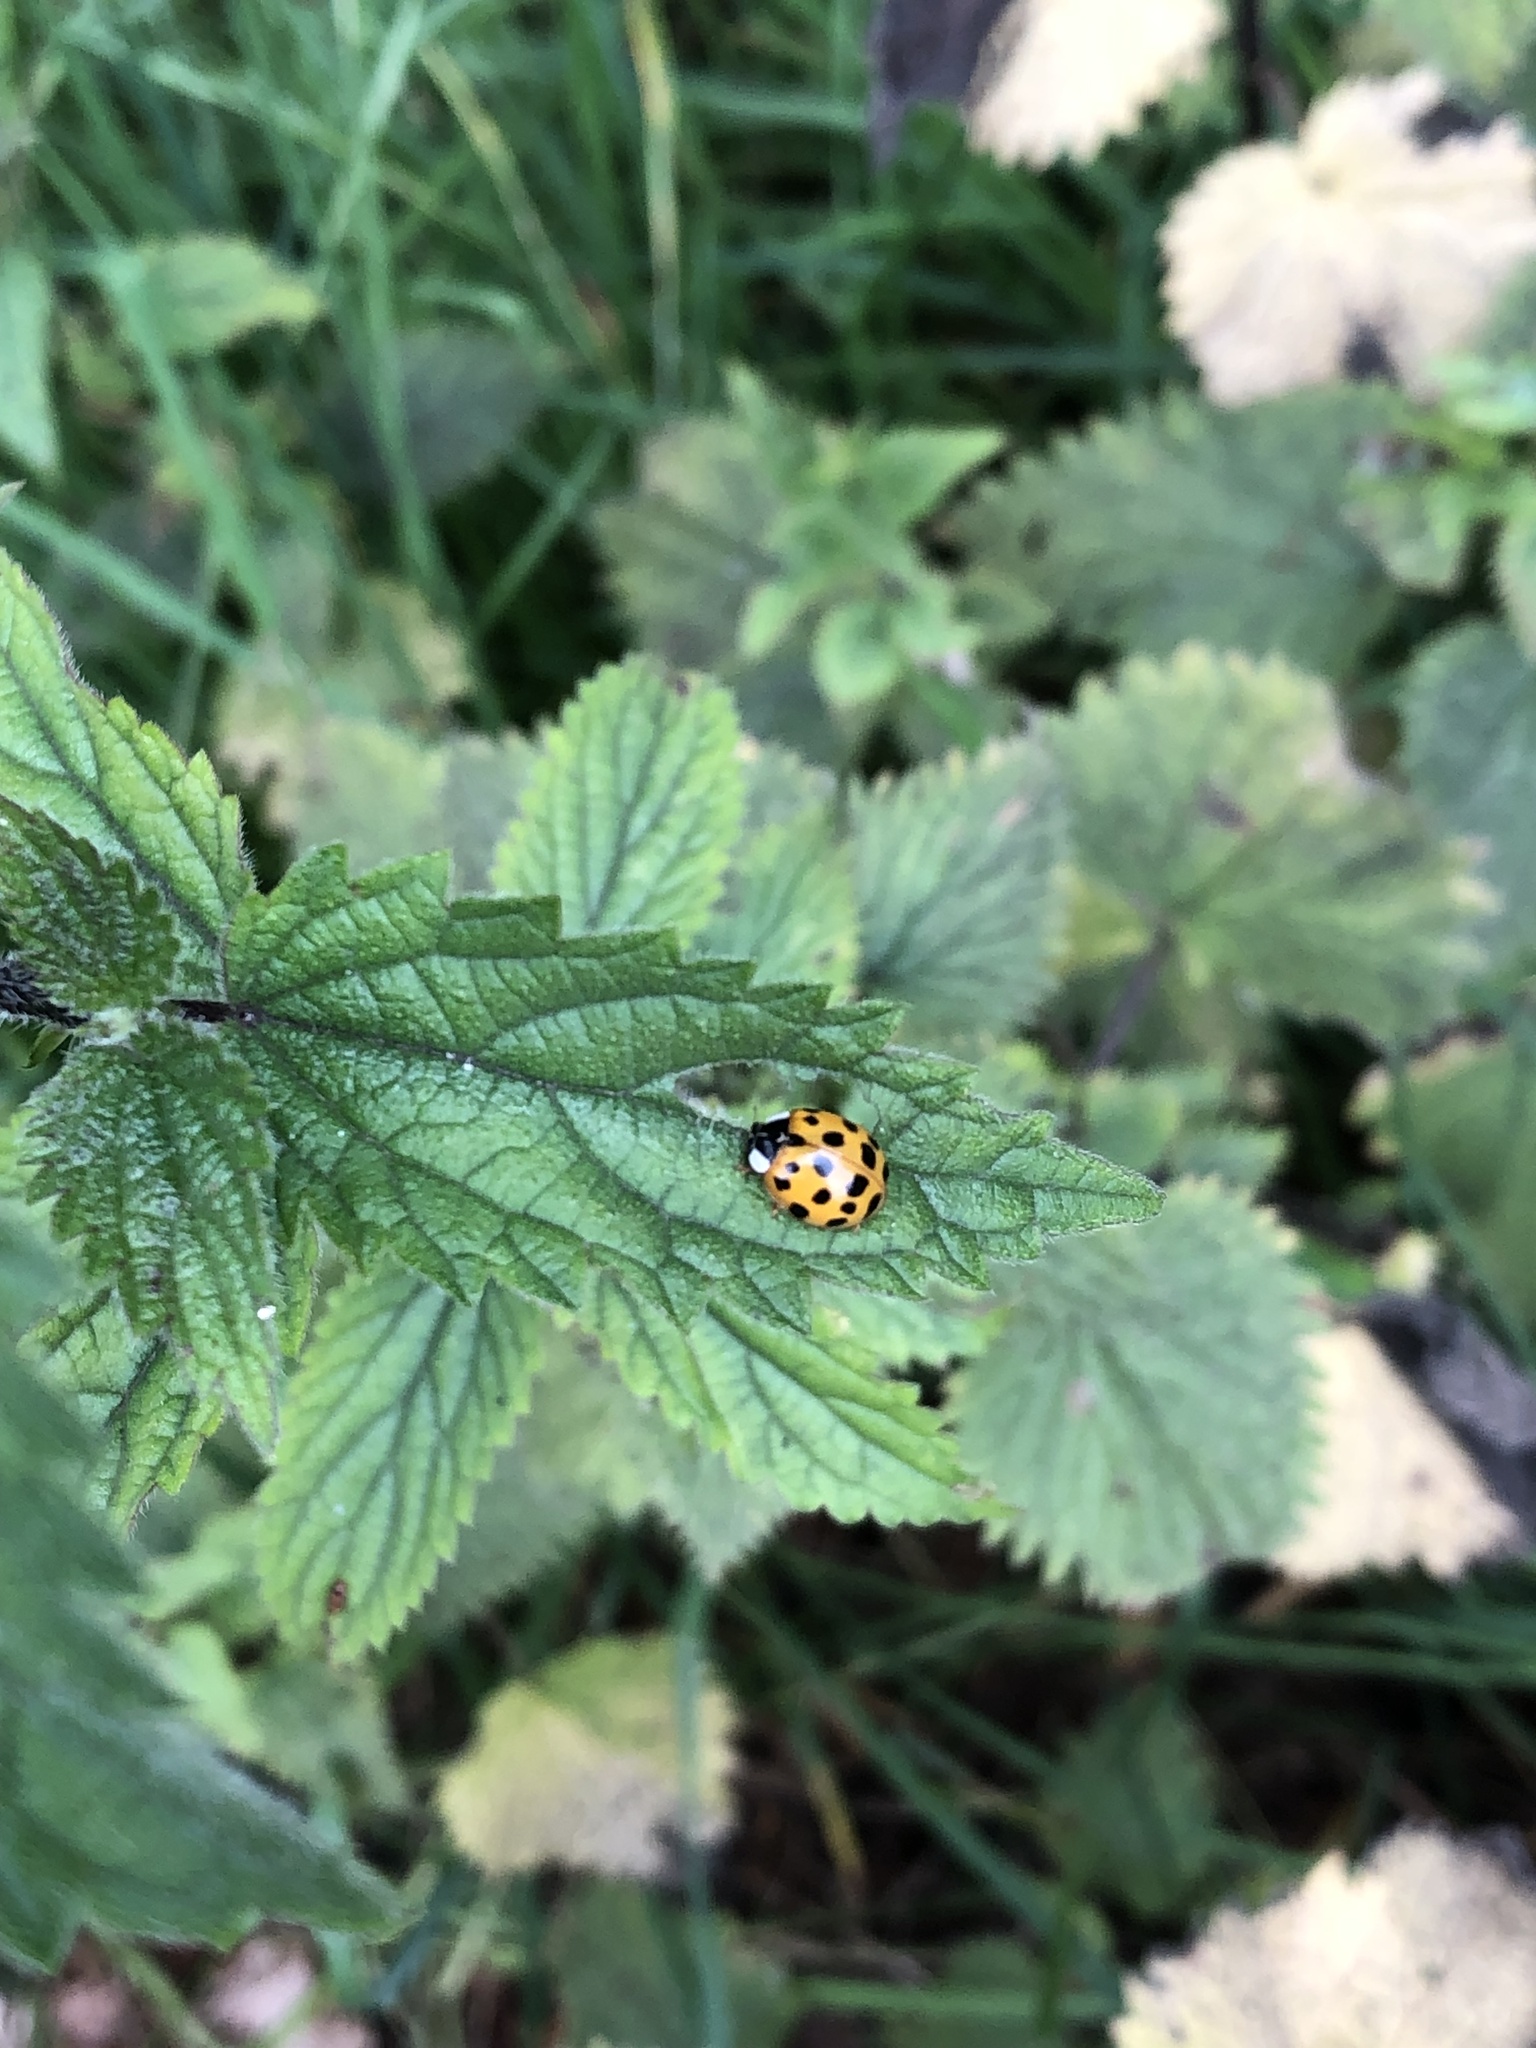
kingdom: Animalia
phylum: Arthropoda
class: Insecta
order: Coleoptera
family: Coccinellidae
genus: Harmonia
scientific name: Harmonia axyridis
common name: Harlequin ladybird
